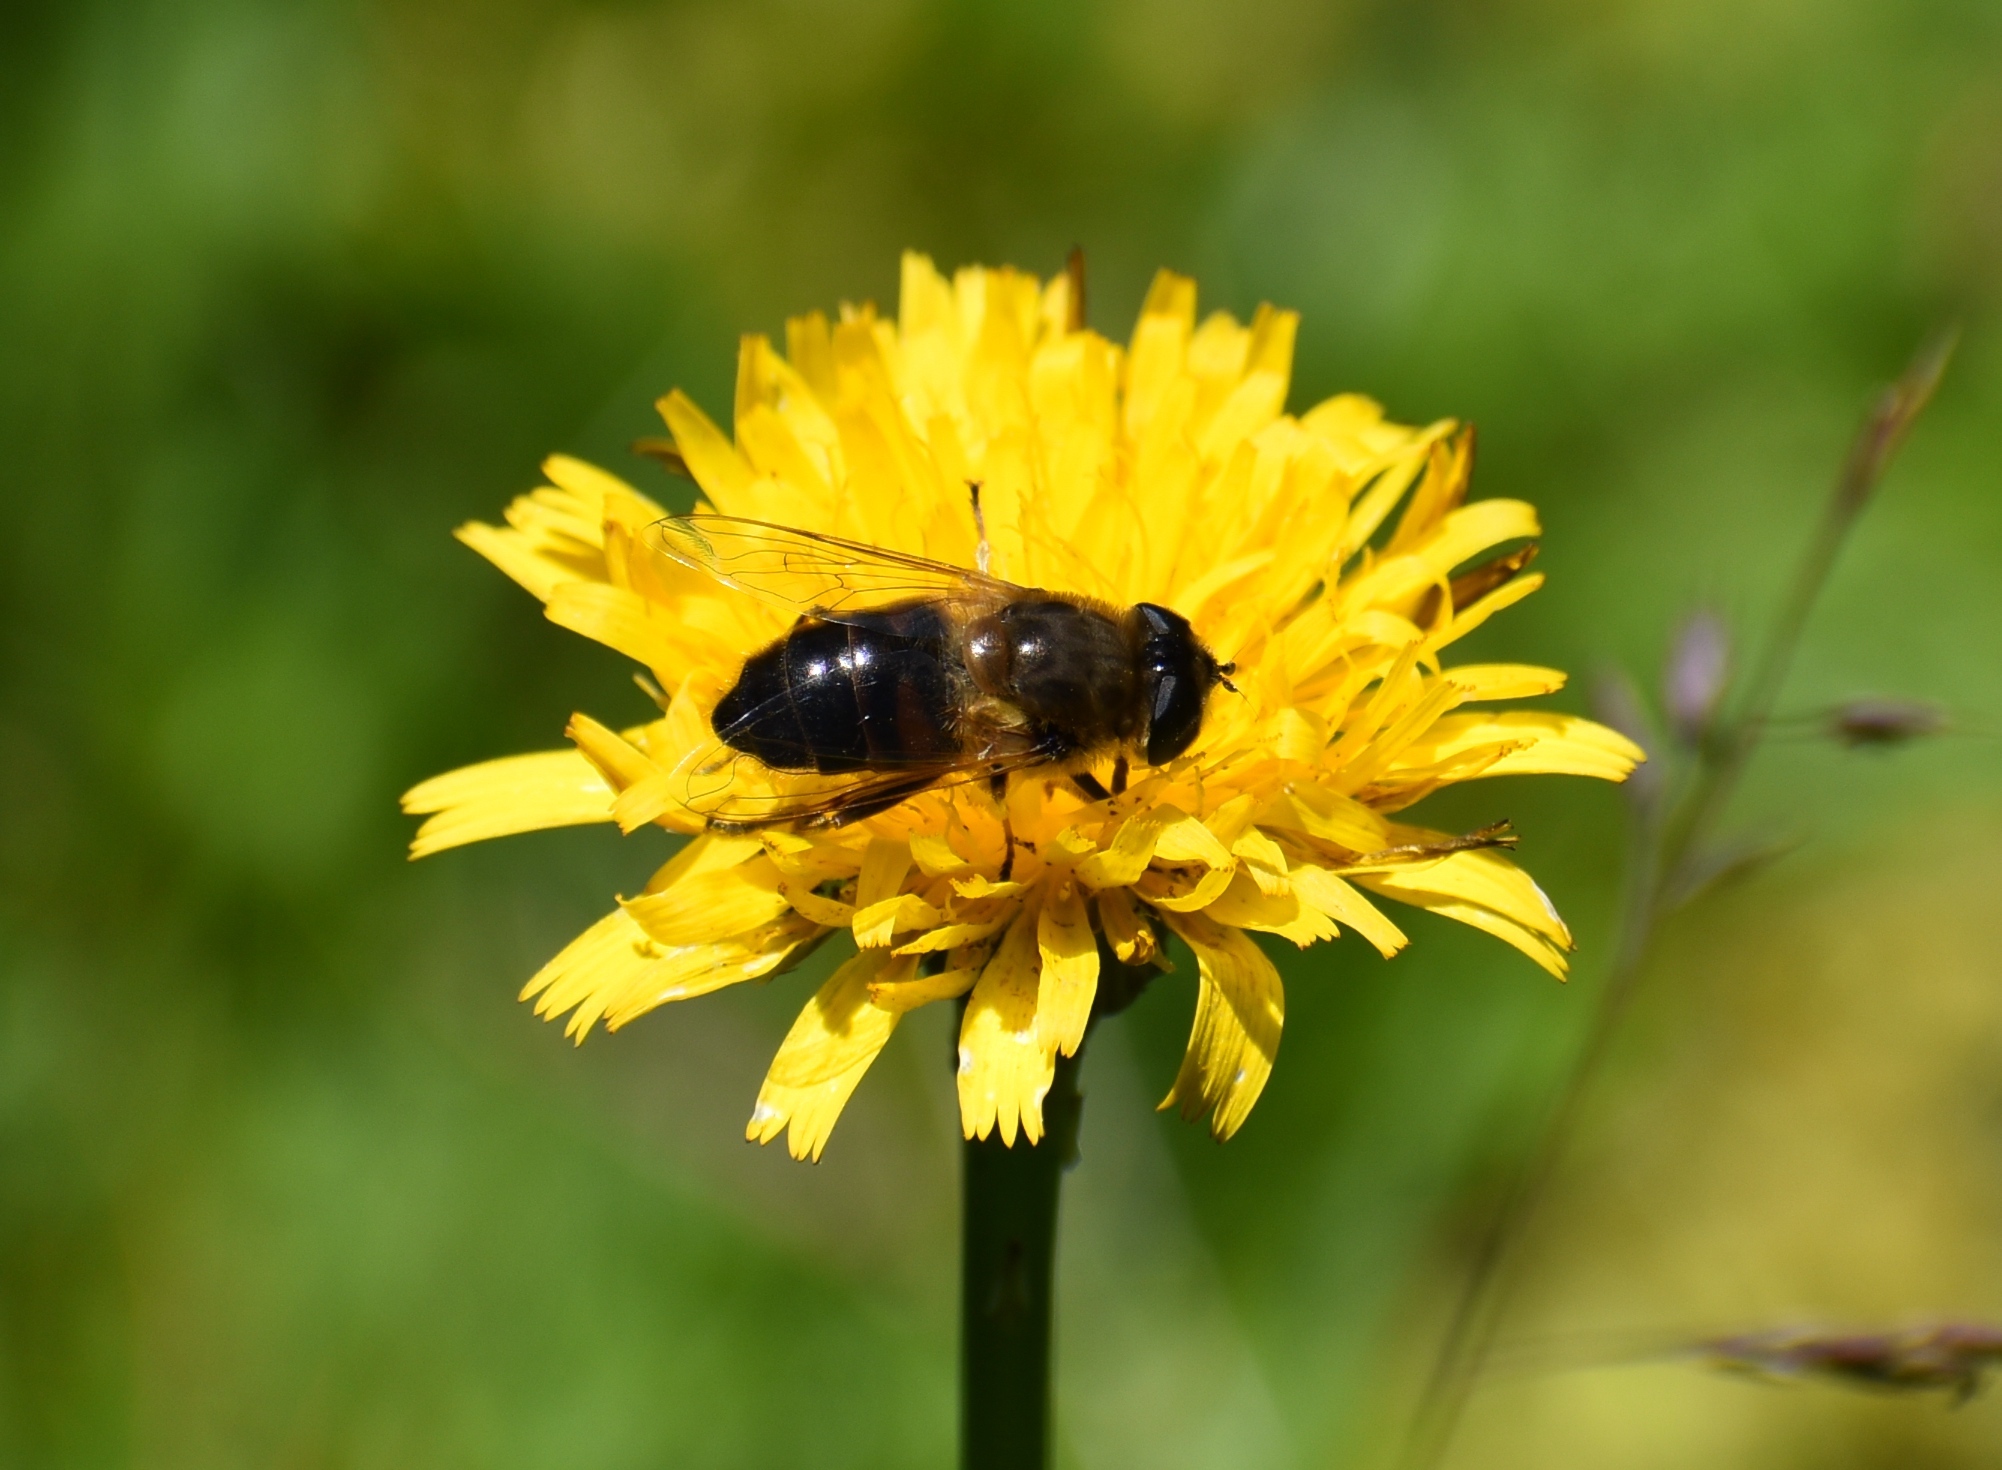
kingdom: Animalia
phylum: Arthropoda
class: Insecta
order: Diptera
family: Syrphidae
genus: Eristalis
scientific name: Eristalis tenax
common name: Drone fly
